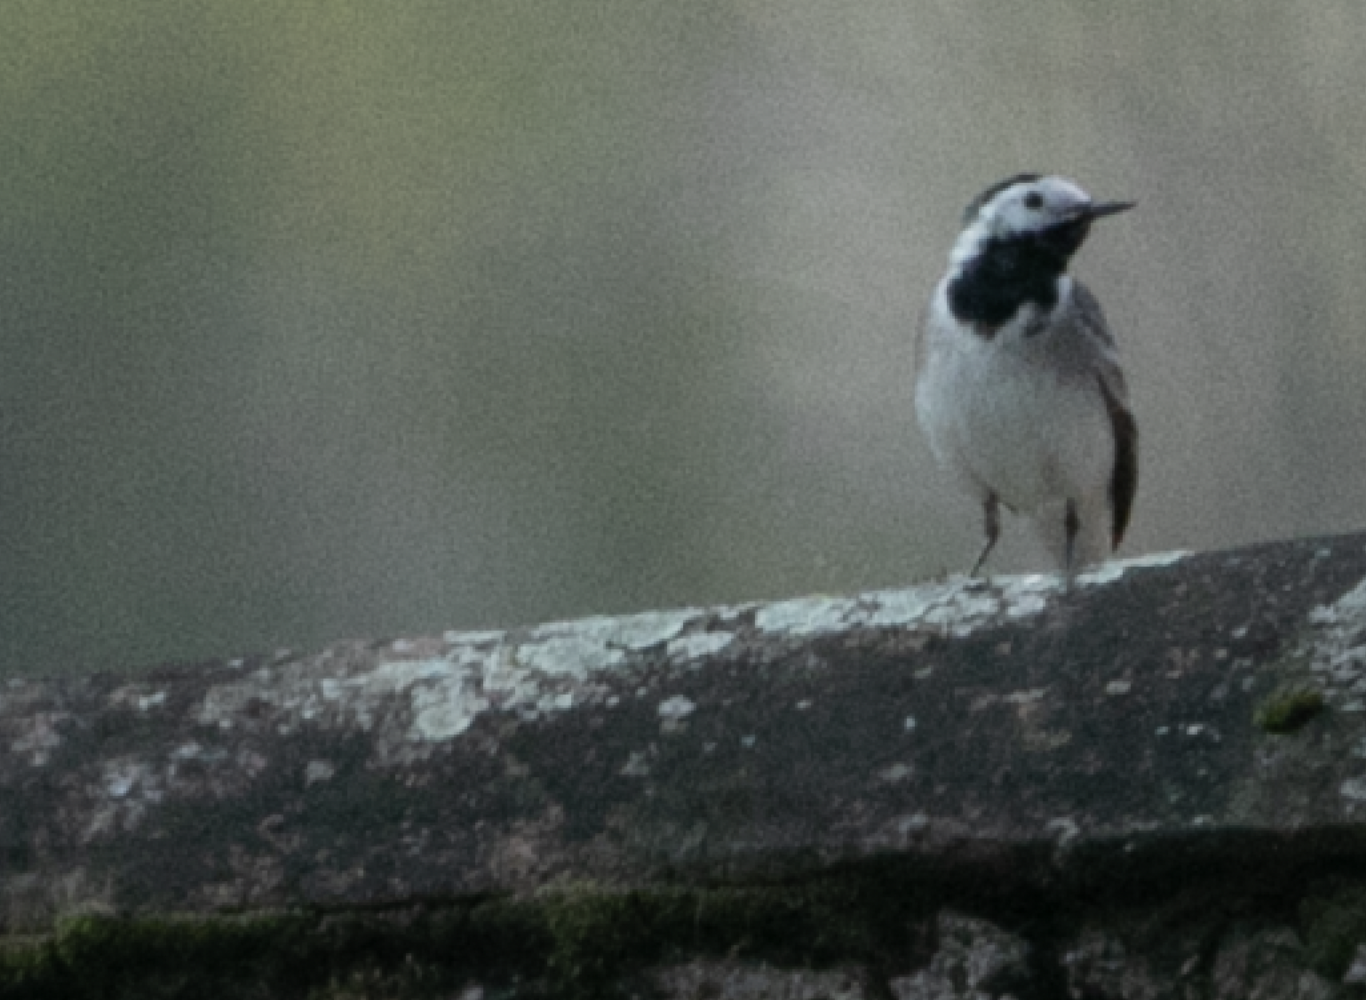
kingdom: Animalia
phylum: Chordata
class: Aves
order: Passeriformes
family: Motacillidae
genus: Motacilla
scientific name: Motacilla alba
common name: White wagtail
